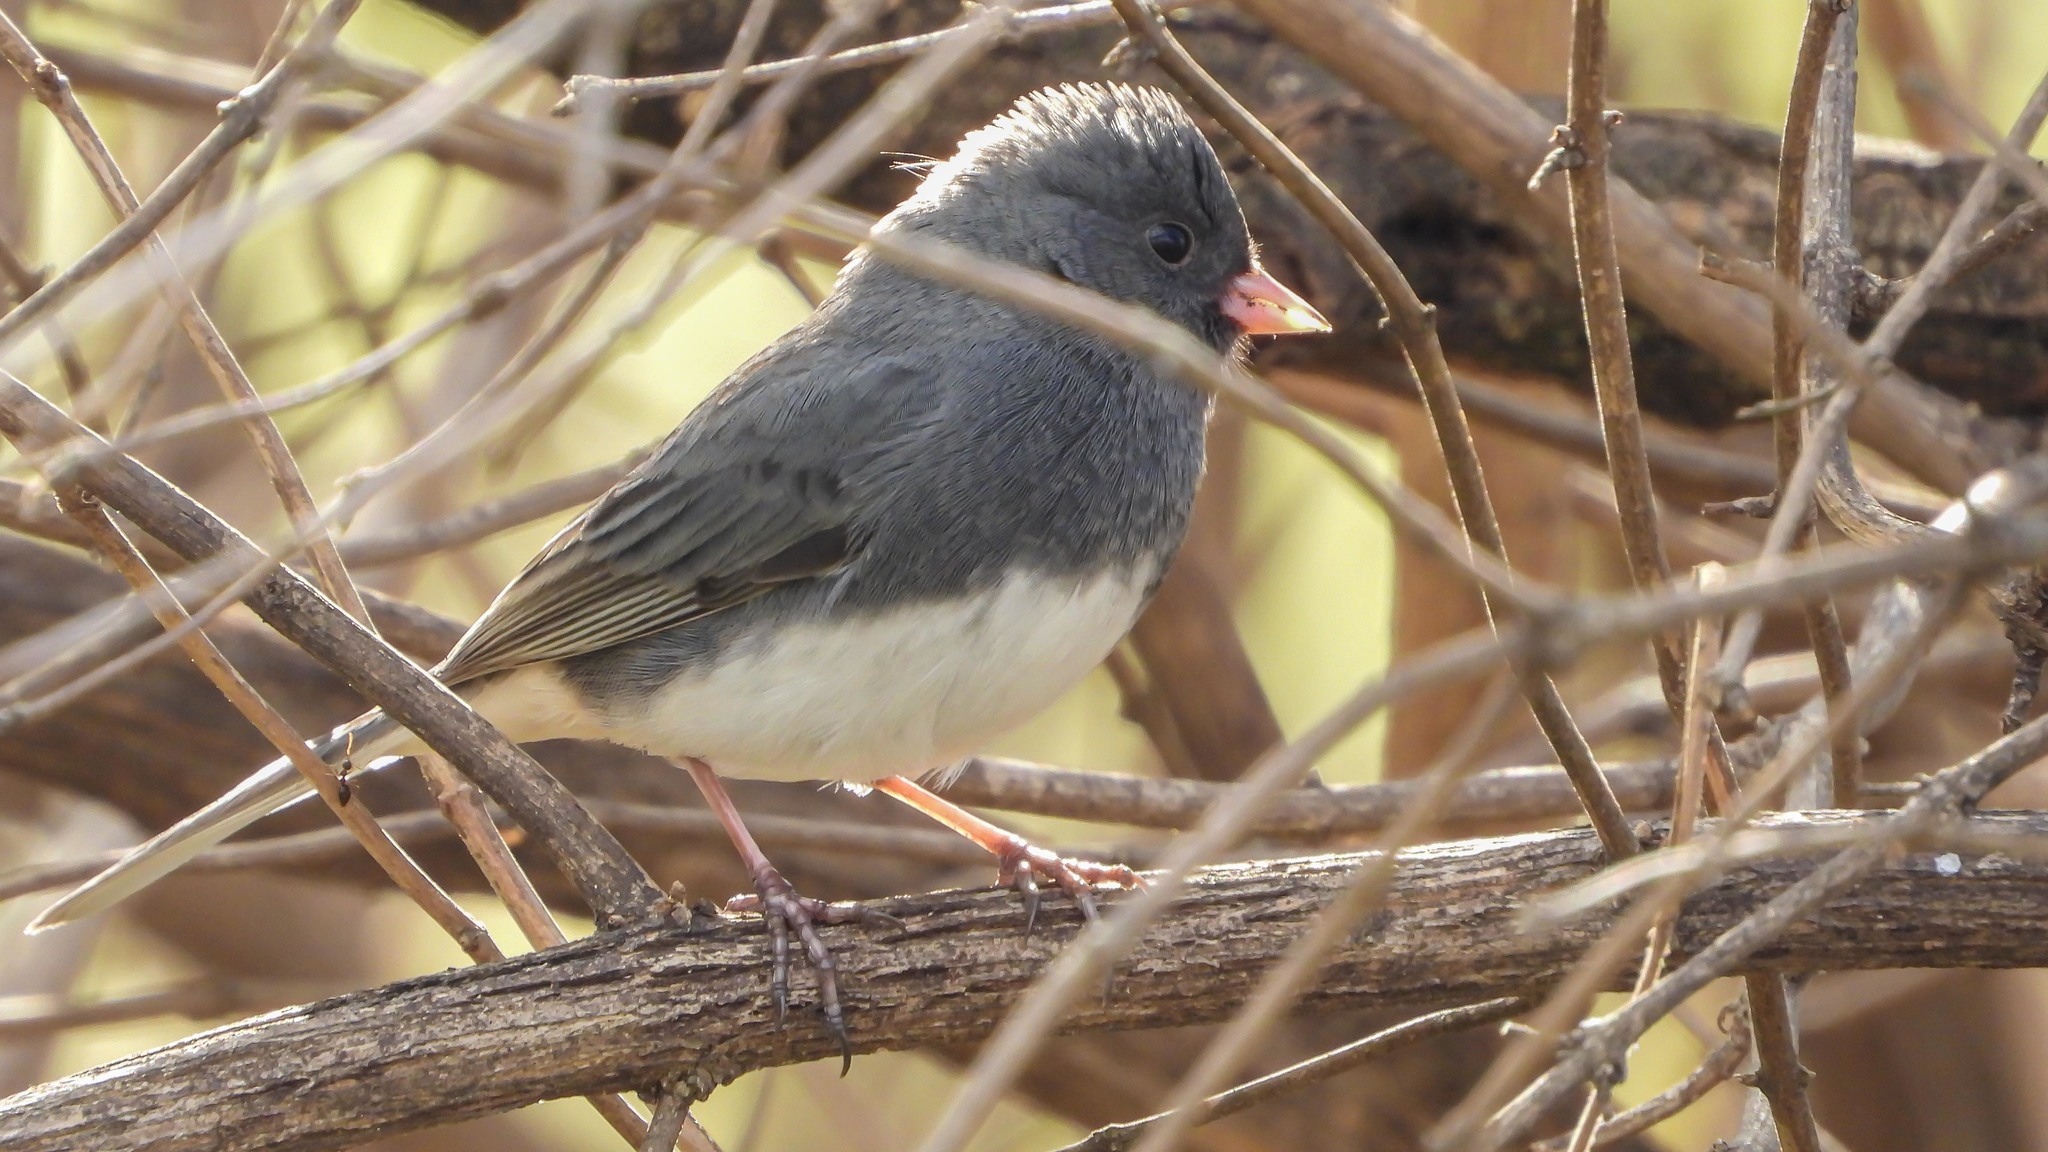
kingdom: Animalia
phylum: Chordata
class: Aves
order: Passeriformes
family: Passerellidae
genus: Junco
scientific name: Junco hyemalis
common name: Dark-eyed junco
